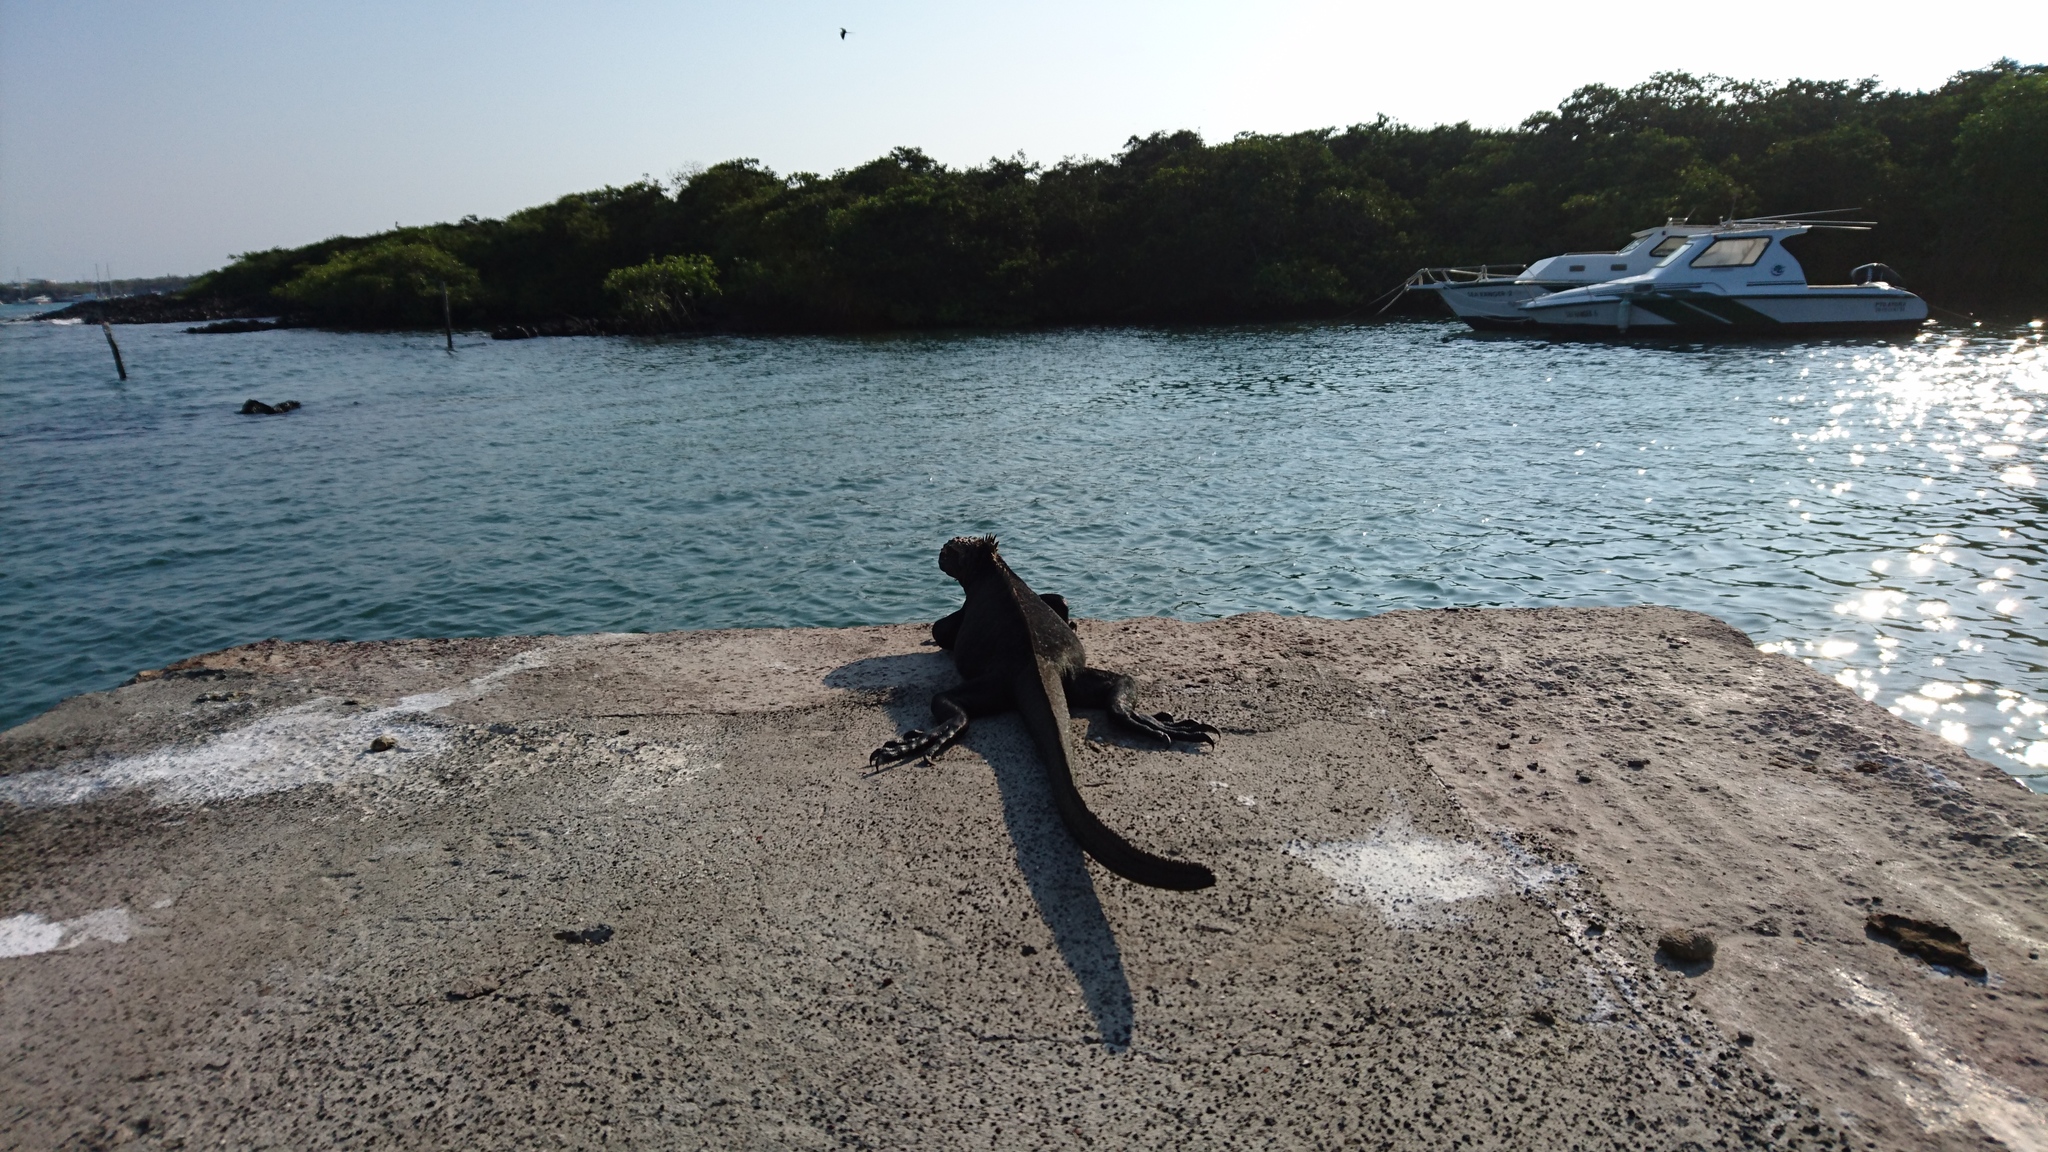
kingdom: Animalia
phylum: Chordata
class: Squamata
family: Iguanidae
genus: Amblyrhynchus
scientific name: Amblyrhynchus cristatus
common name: Marine iguana
